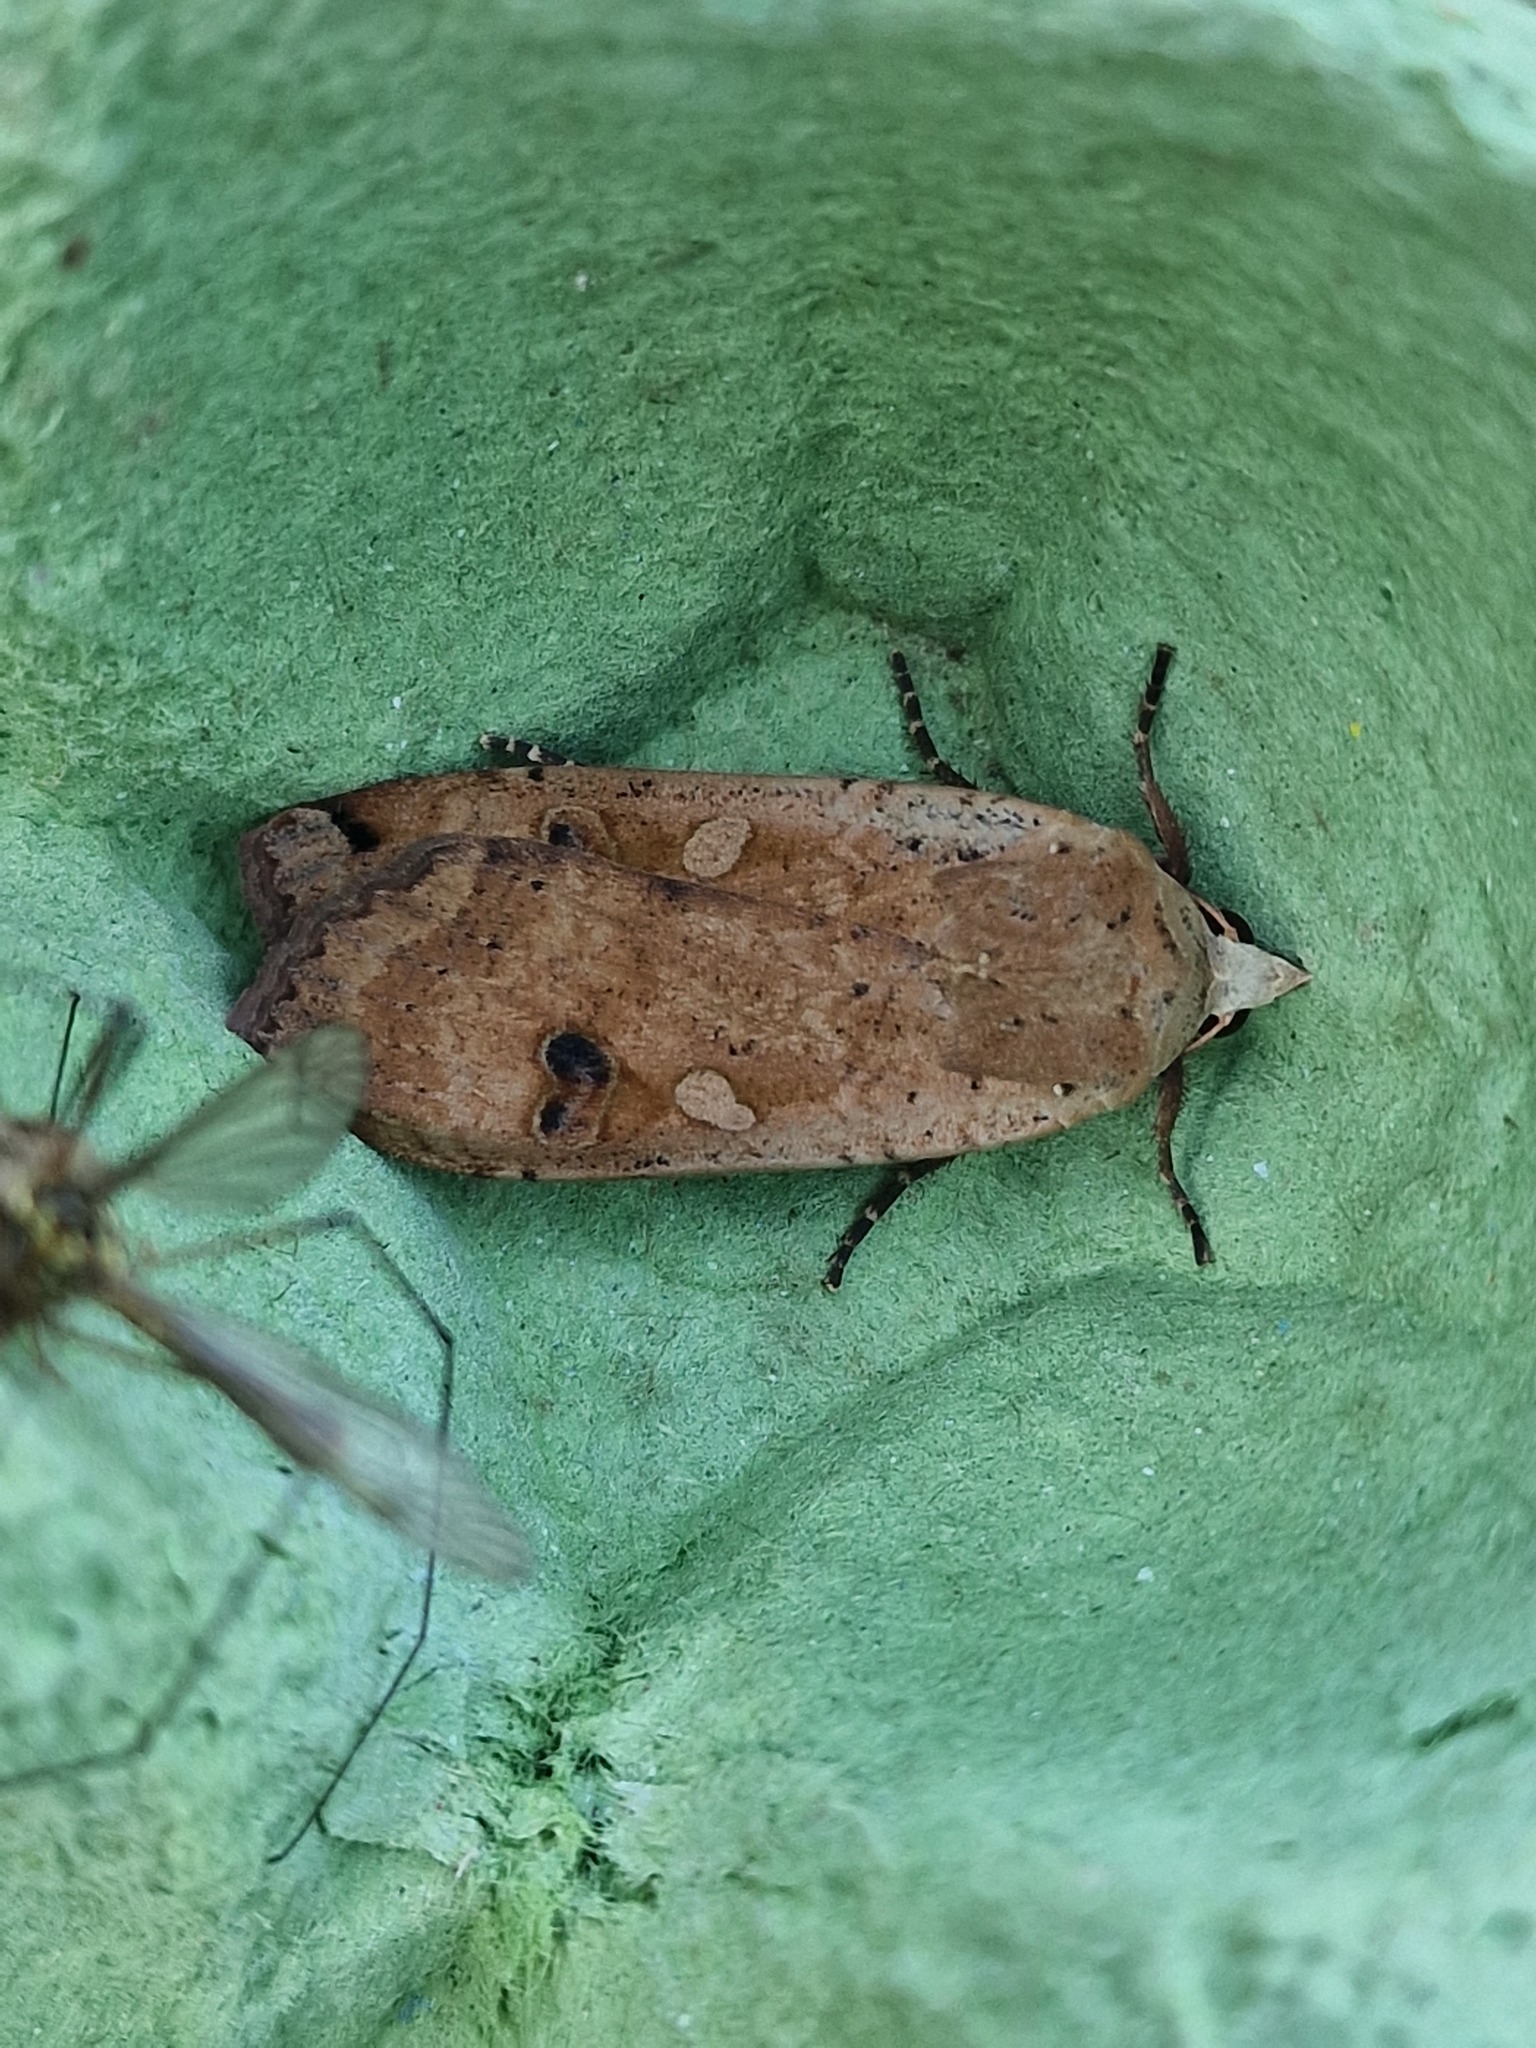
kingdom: Animalia
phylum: Arthropoda
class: Insecta
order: Lepidoptera
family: Noctuidae
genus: Noctua
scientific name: Noctua pronuba
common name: Large yellow underwing
